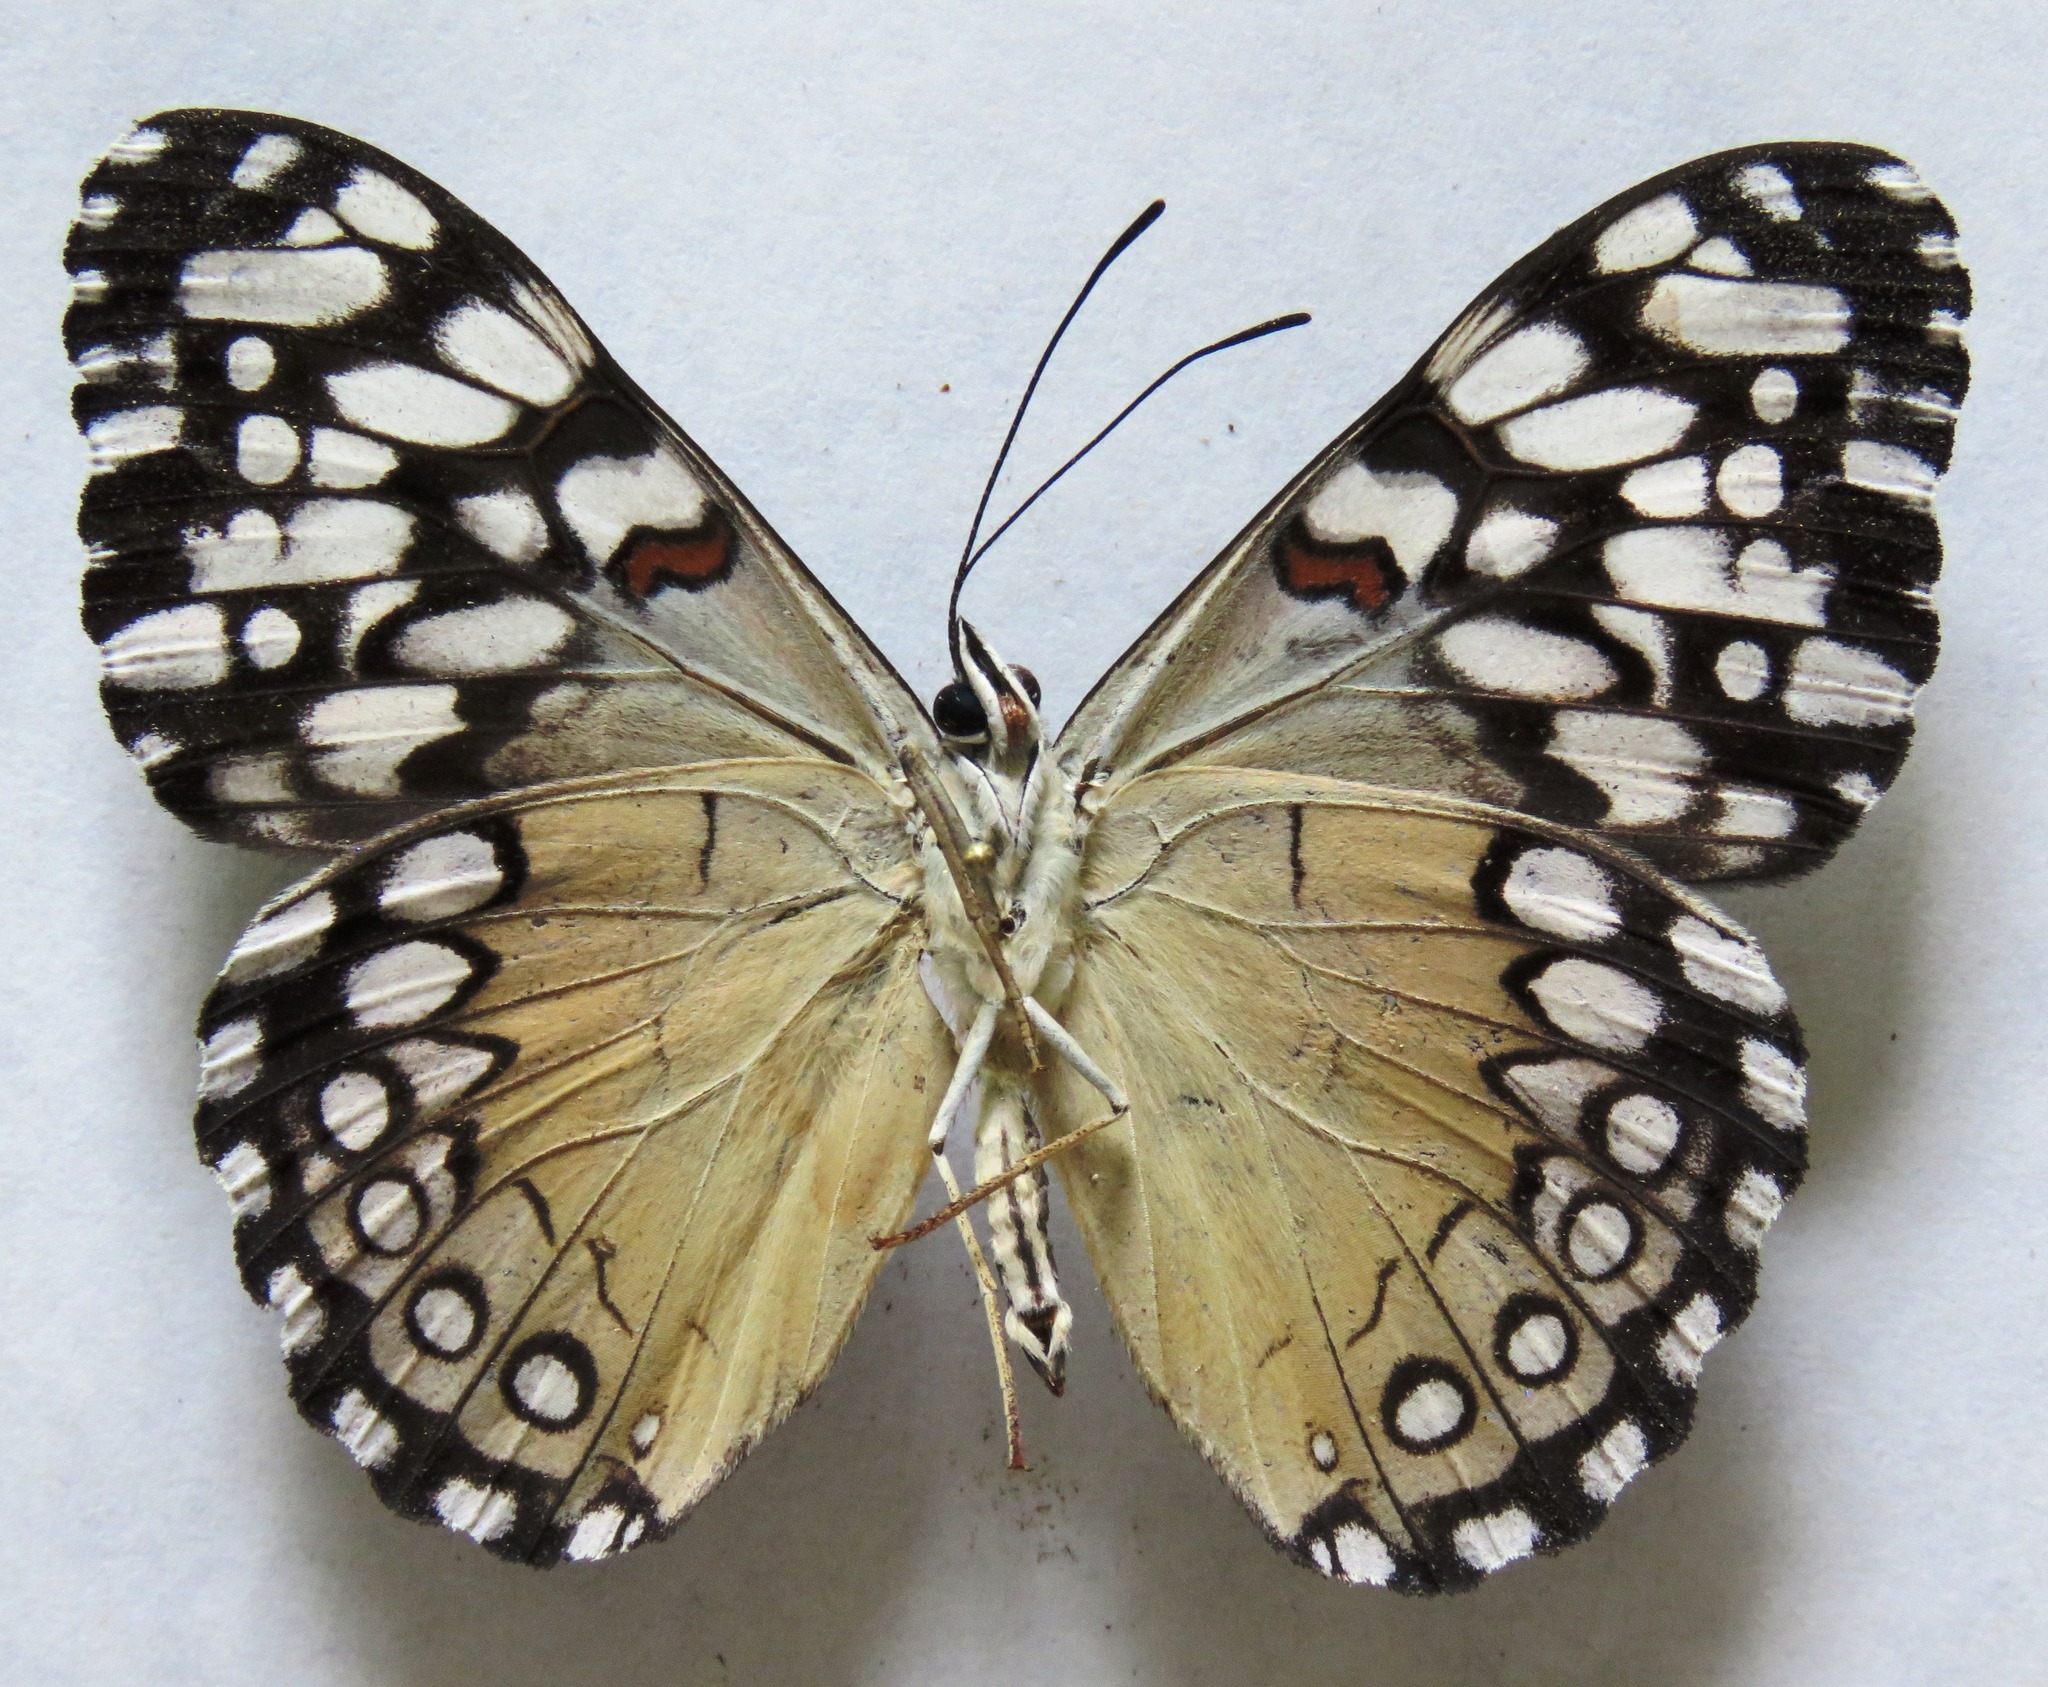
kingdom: Animalia
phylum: Arthropoda
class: Insecta
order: Lepidoptera
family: Nymphalidae
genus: Hamadryas
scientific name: Hamadryas guatemalena
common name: Guatemalan cracker
